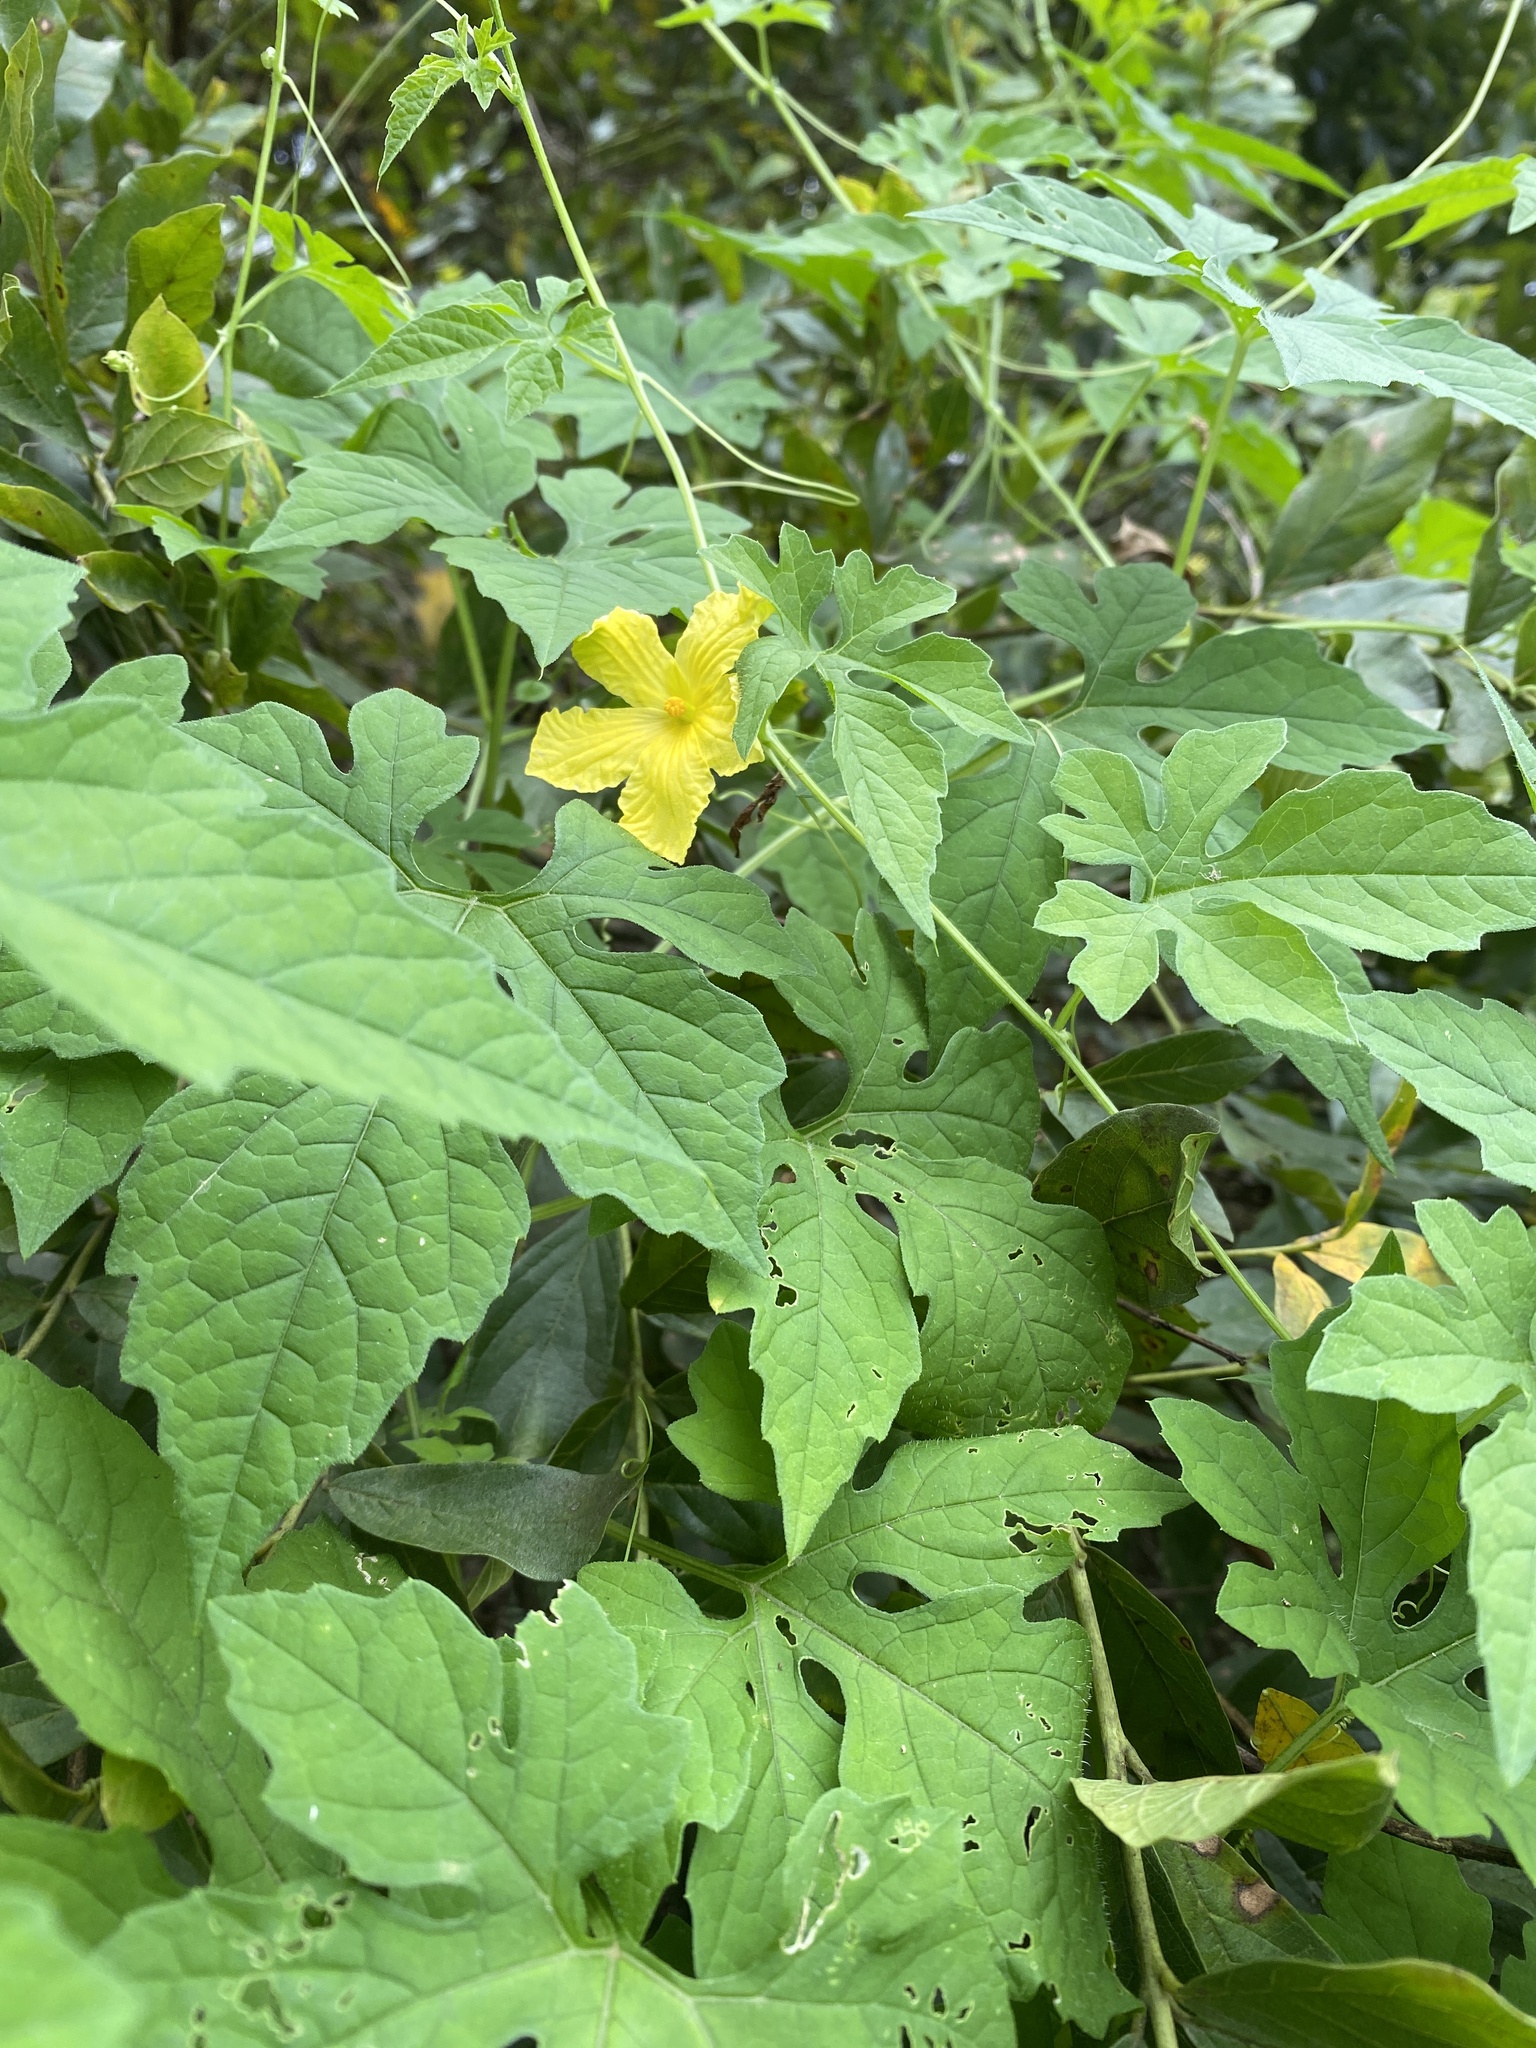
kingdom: Plantae
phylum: Tracheophyta
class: Magnoliopsida
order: Cucurbitales
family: Cucurbitaceae
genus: Momordica
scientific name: Momordica charantia
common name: Balsampear
